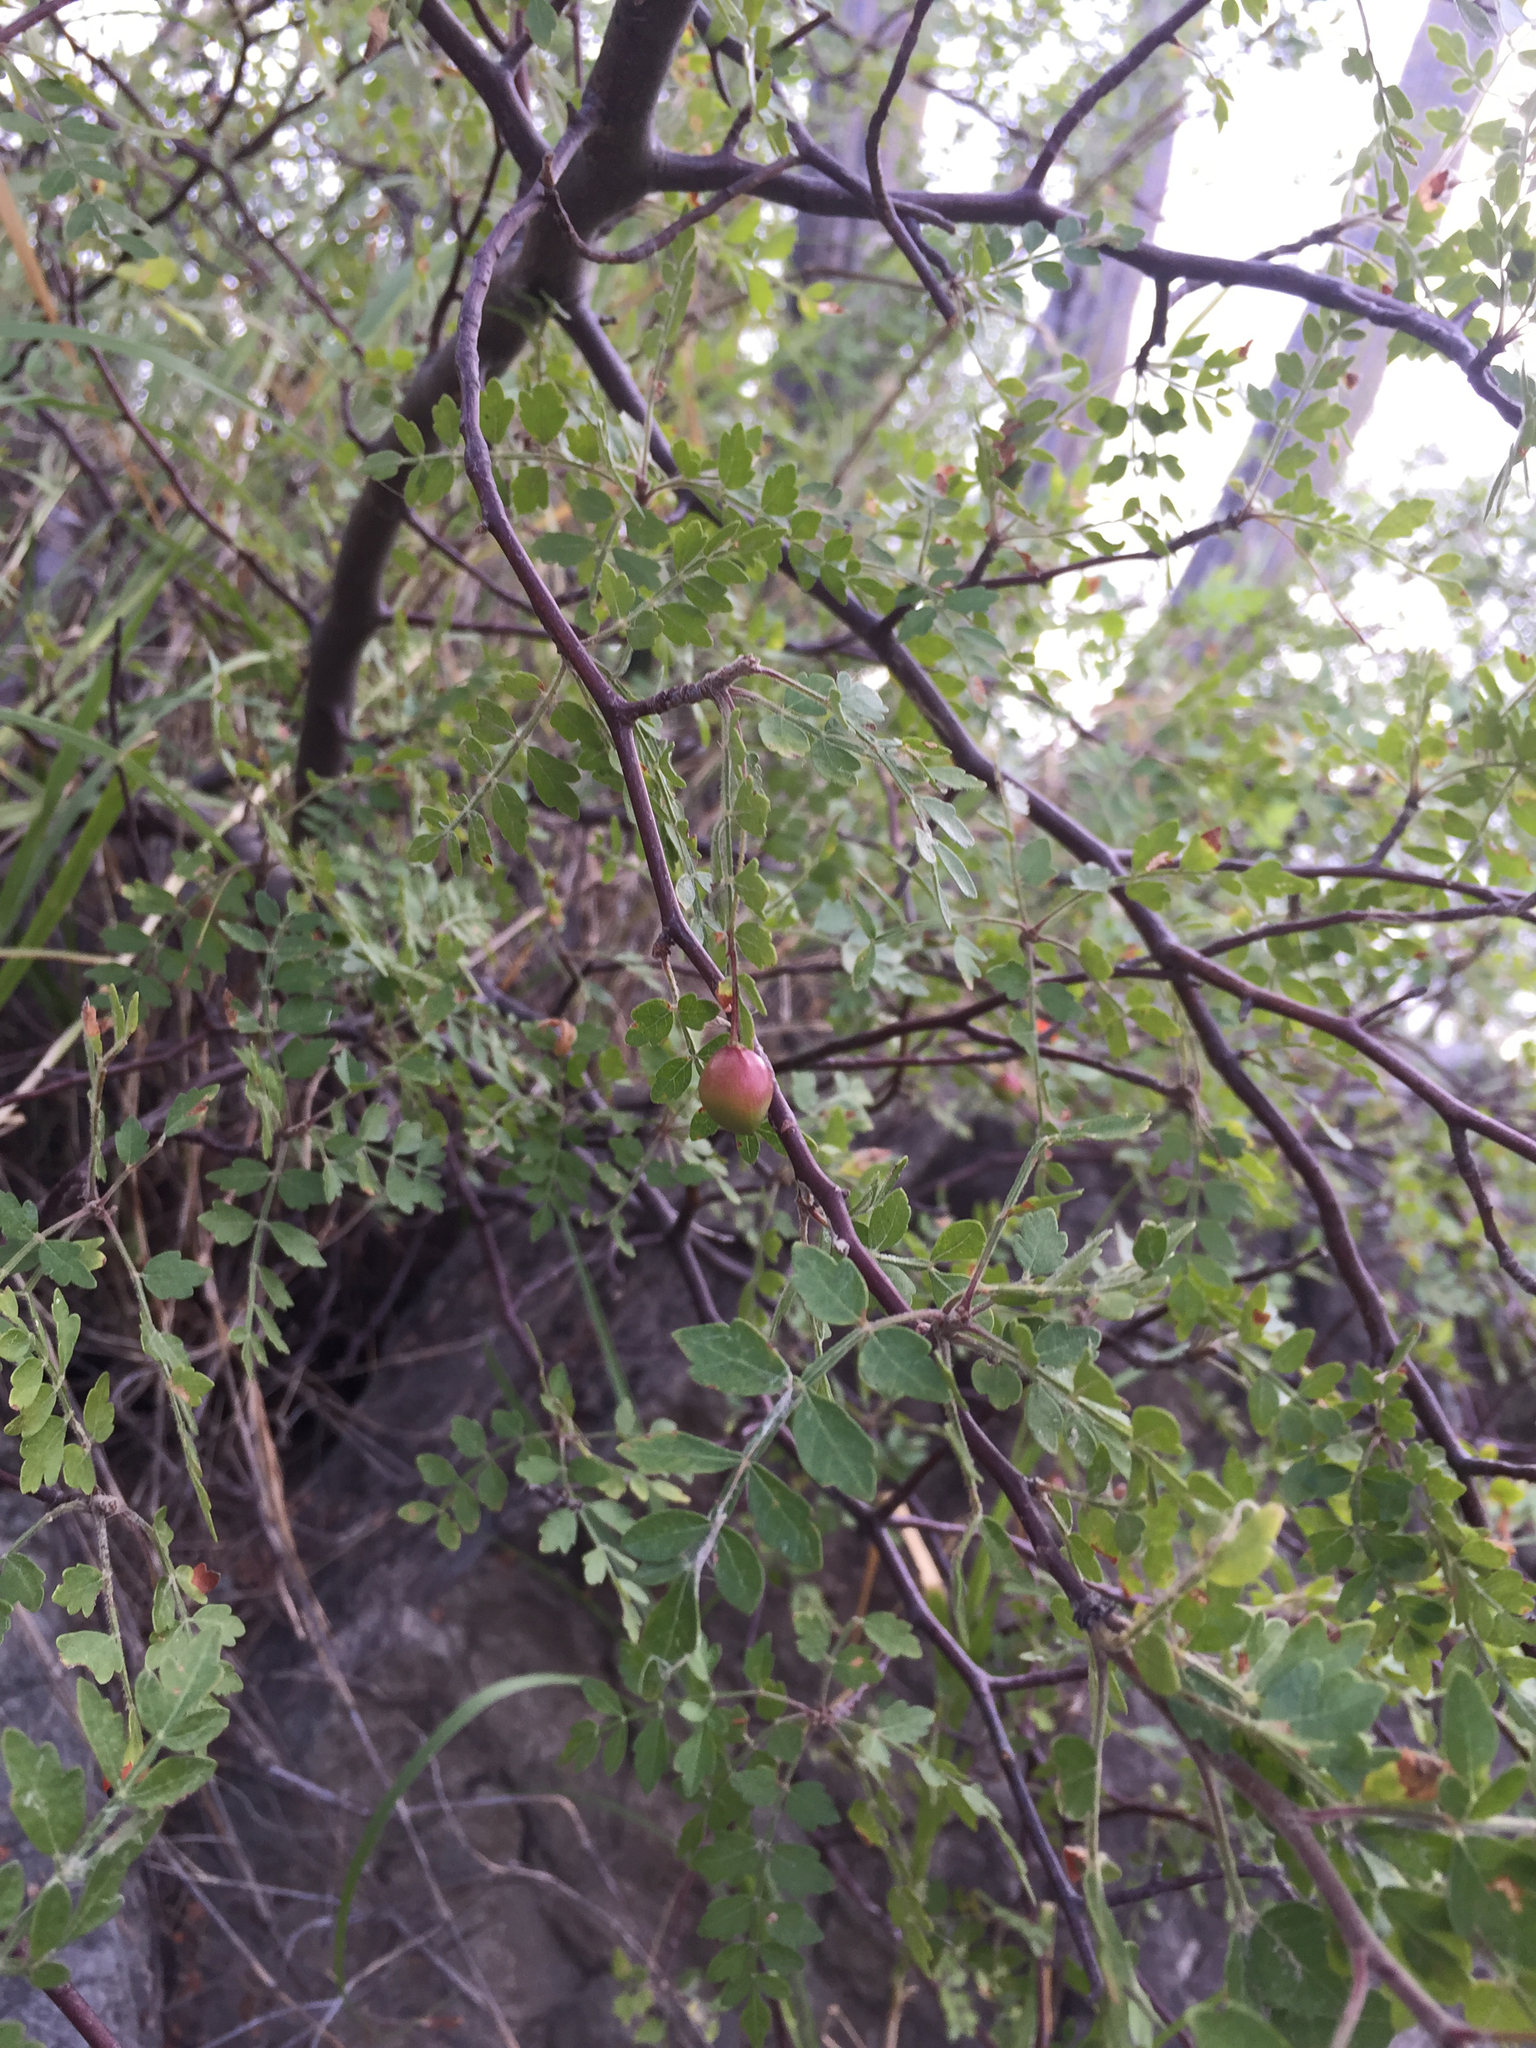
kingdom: Plantae
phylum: Tracheophyta
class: Magnoliopsida
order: Sapindales
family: Burseraceae
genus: Bursera
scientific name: Bursera laxiflora
